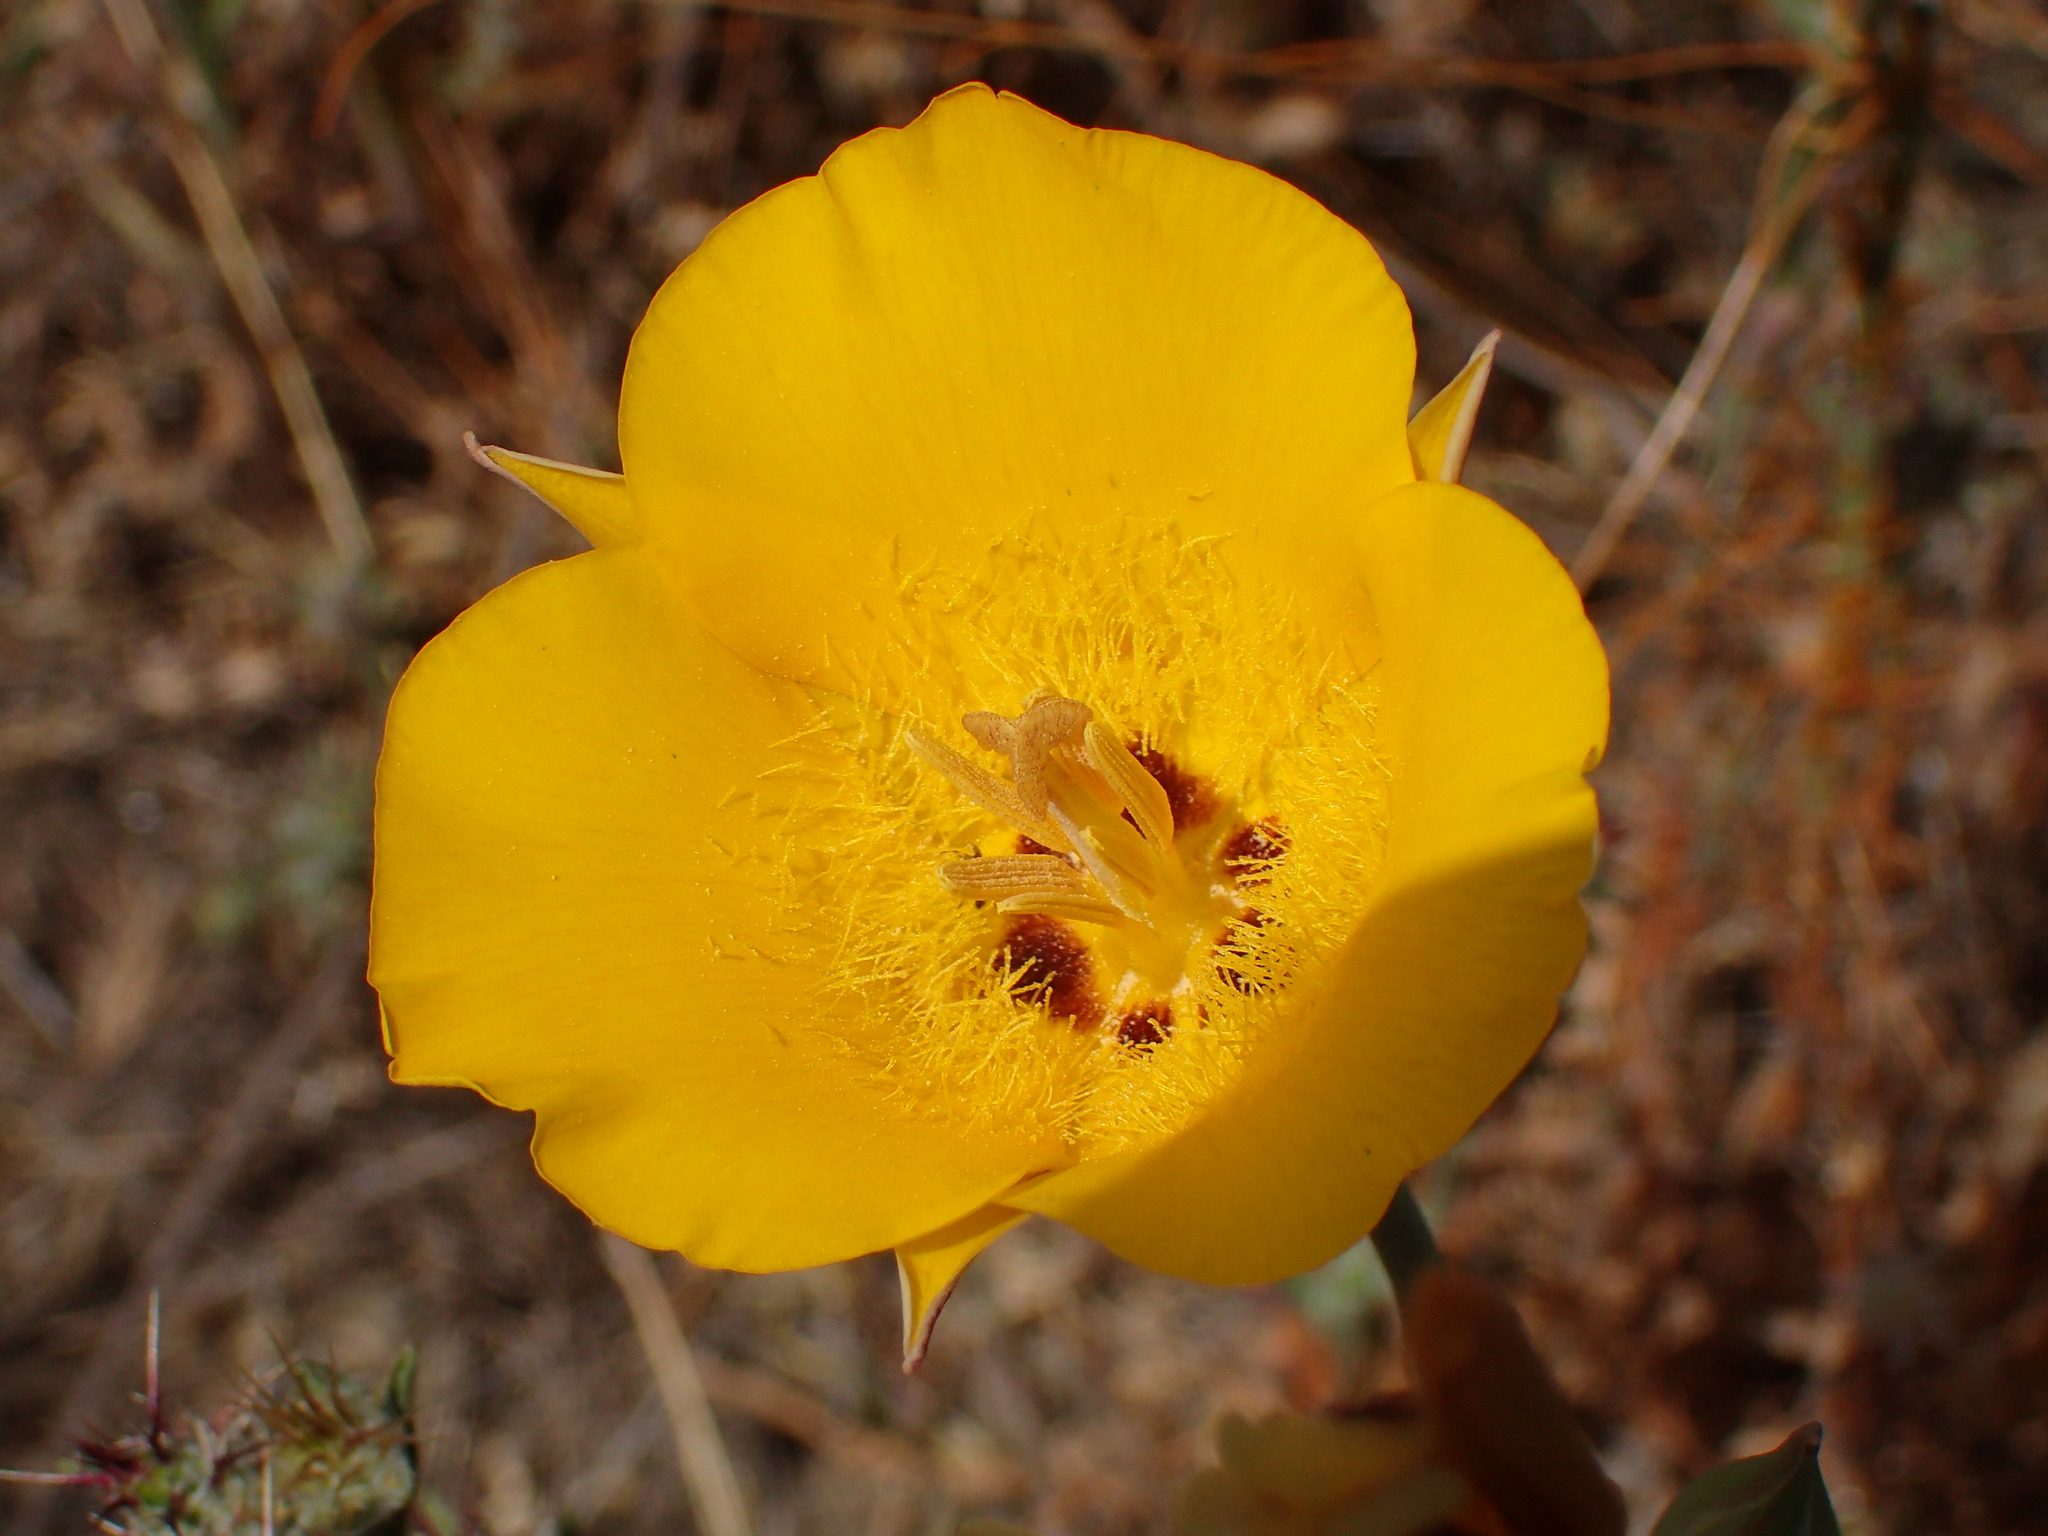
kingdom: Plantae
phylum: Tracheophyta
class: Liliopsida
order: Liliales
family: Liliaceae
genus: Calochortus
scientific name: Calochortus clavatus
